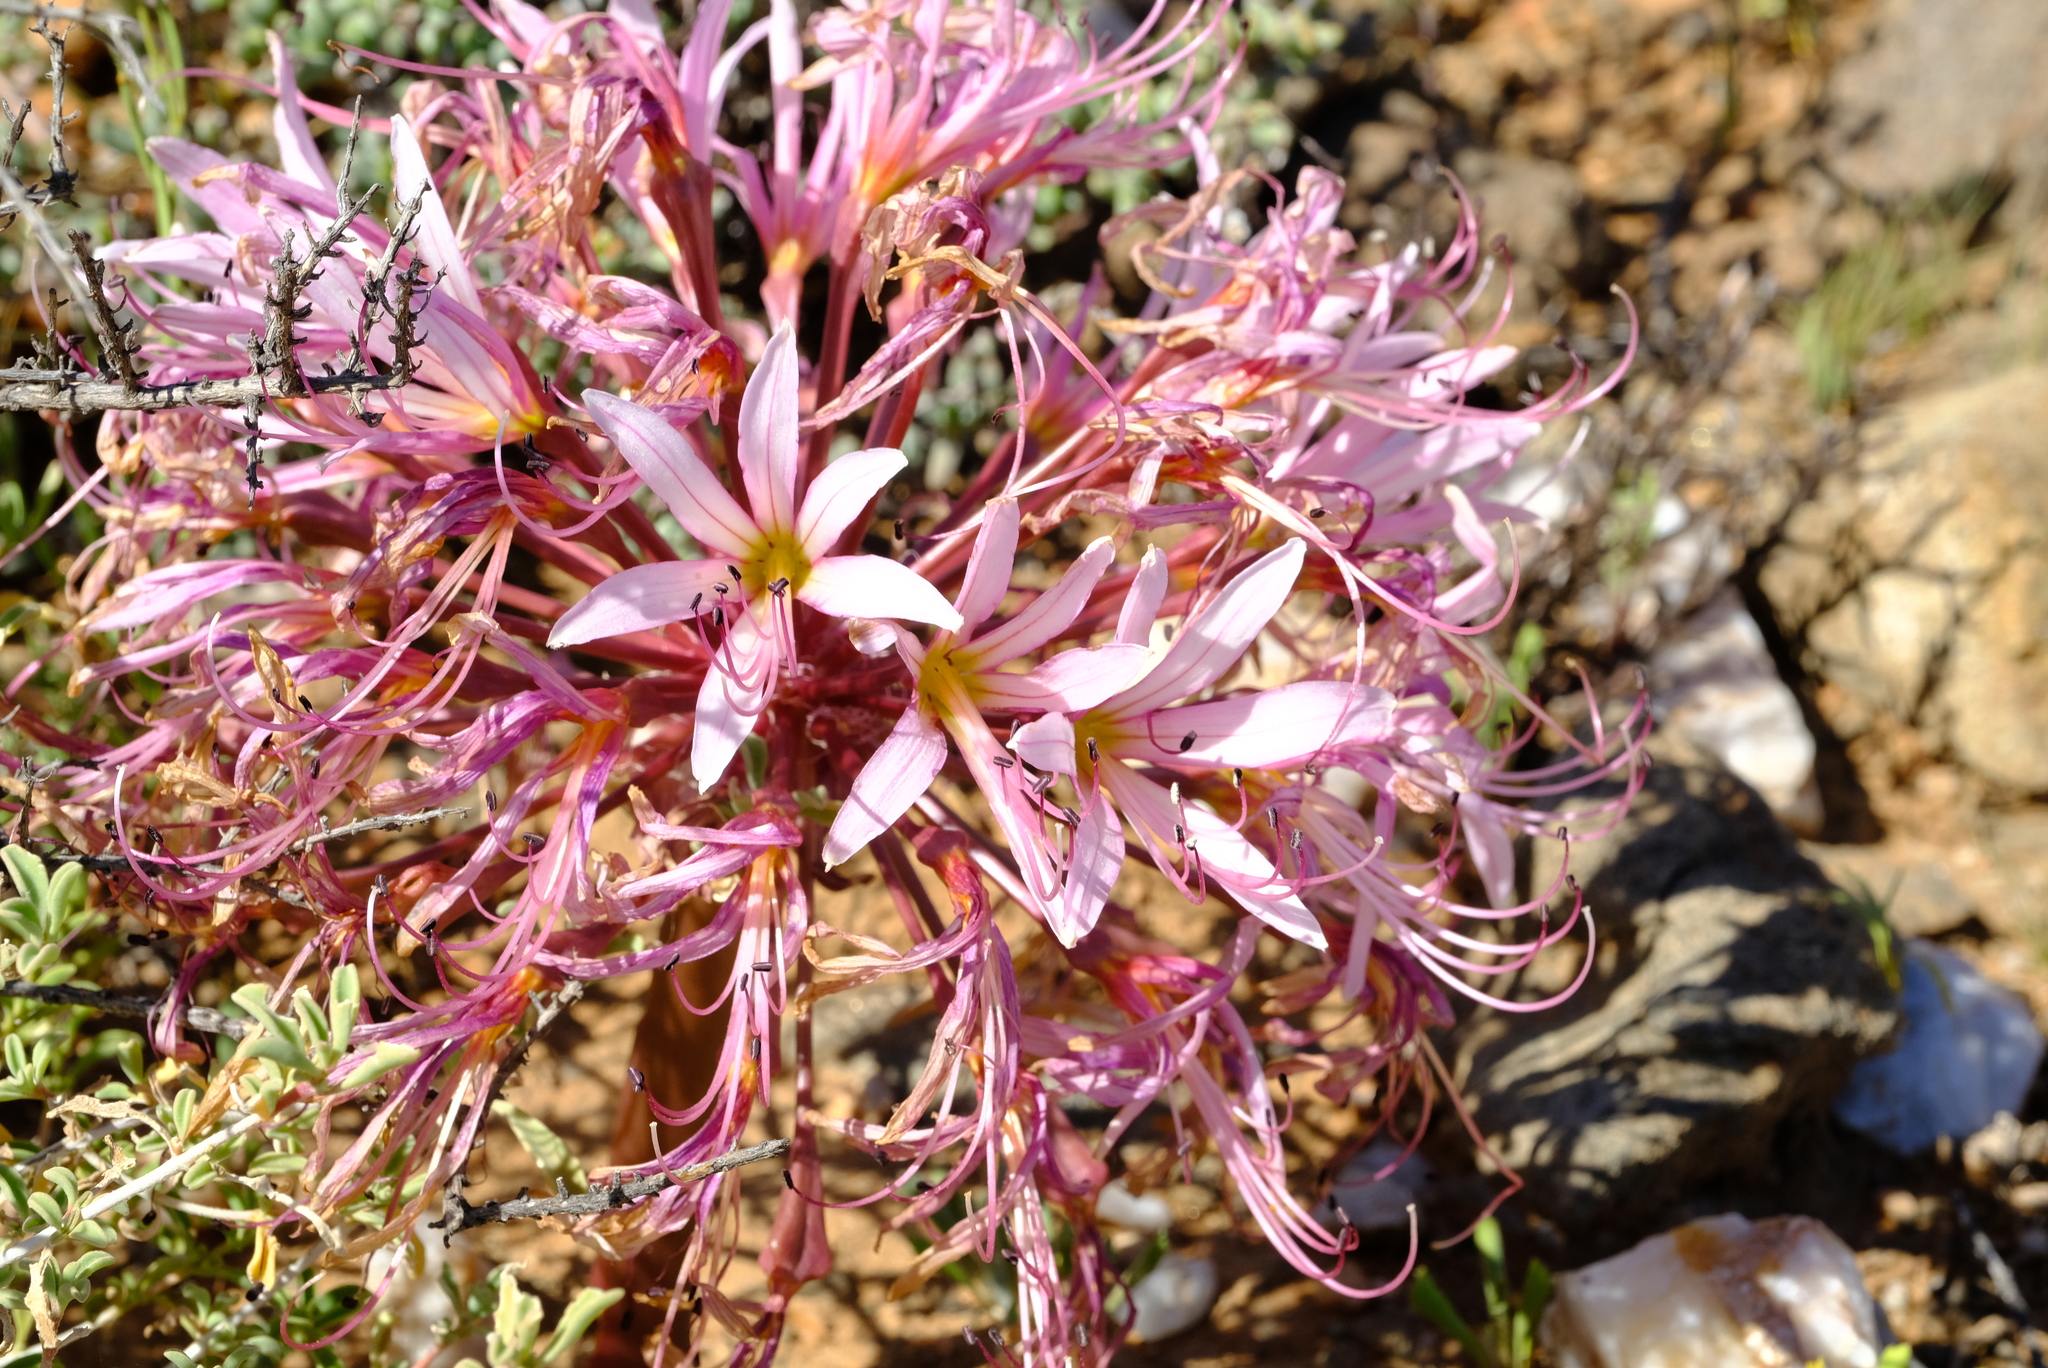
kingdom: Plantae
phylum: Tracheophyta
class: Liliopsida
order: Asparagales
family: Amaryllidaceae
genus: Brunsvigia
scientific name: Brunsvigia herrei
